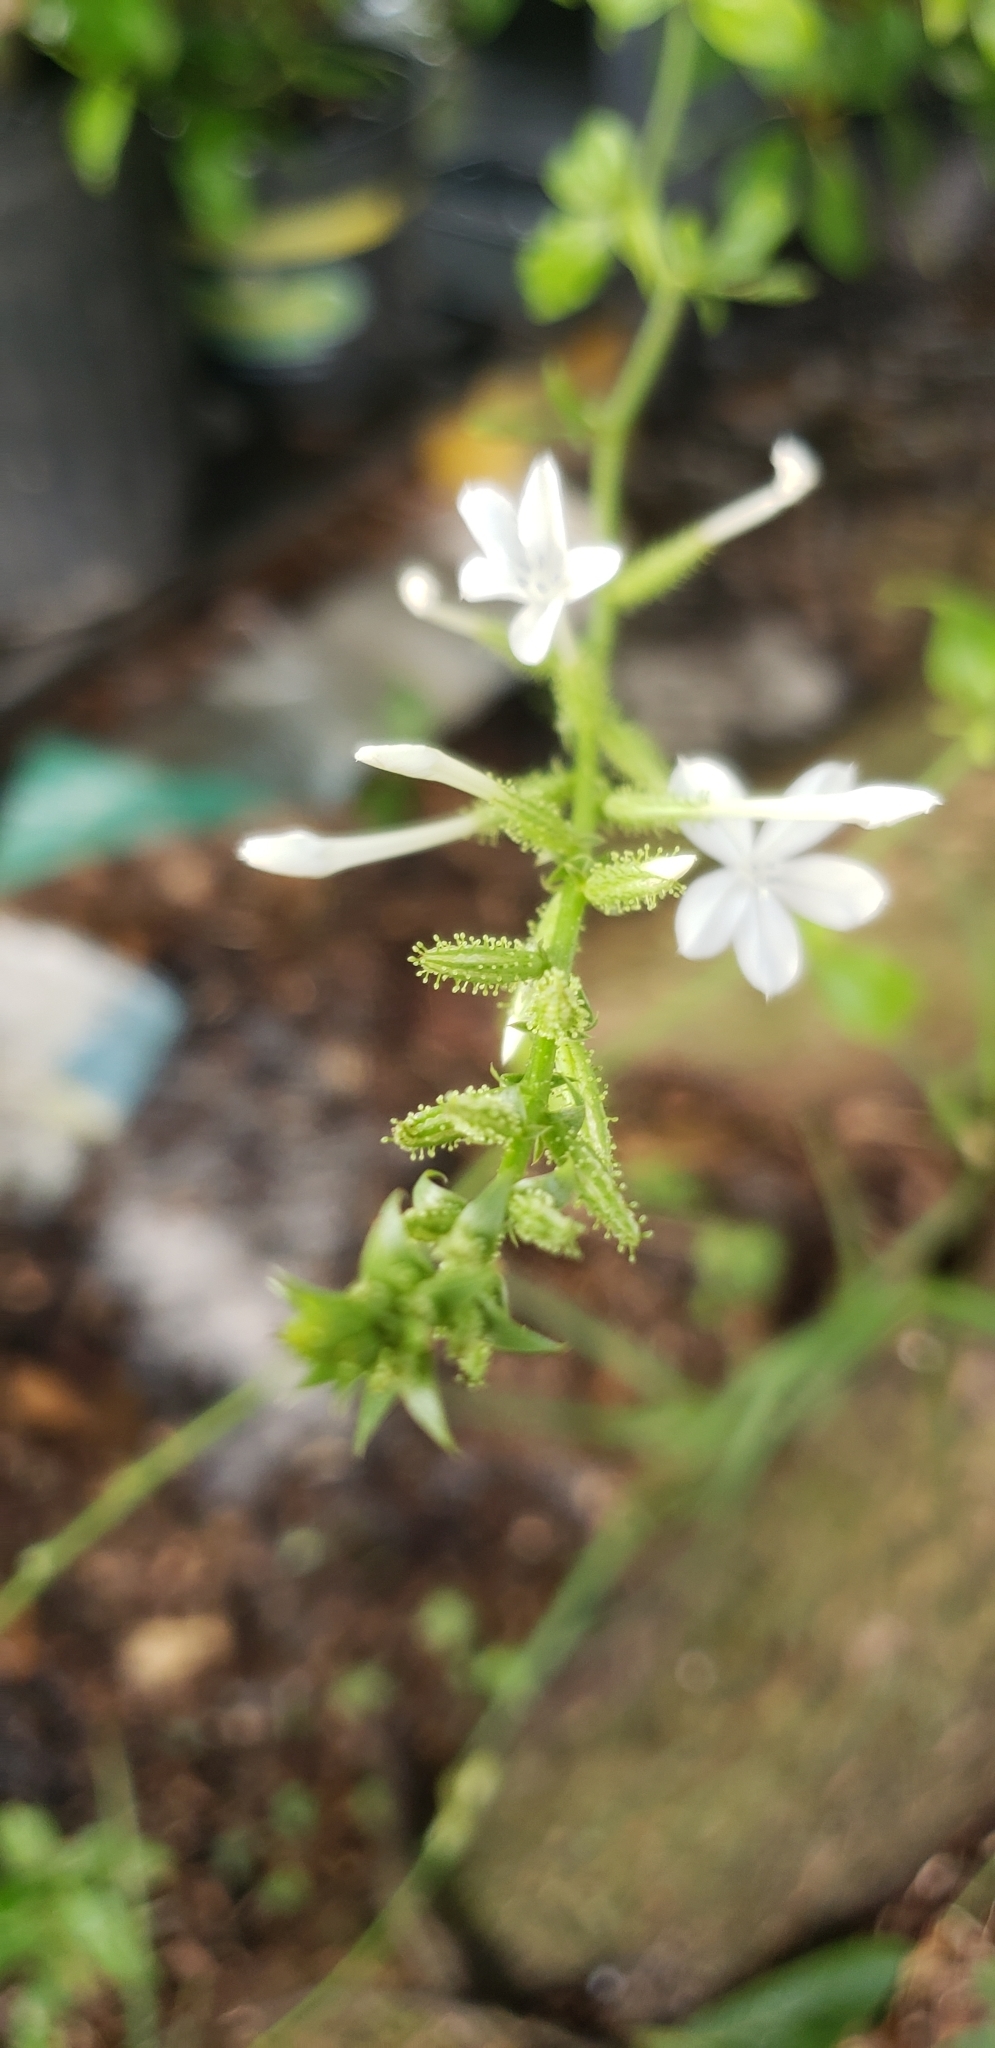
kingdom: Plantae
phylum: Tracheophyta
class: Magnoliopsida
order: Caryophyllales
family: Plumbaginaceae
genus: Plumbago
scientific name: Plumbago zeylanica
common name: Doctorbush
